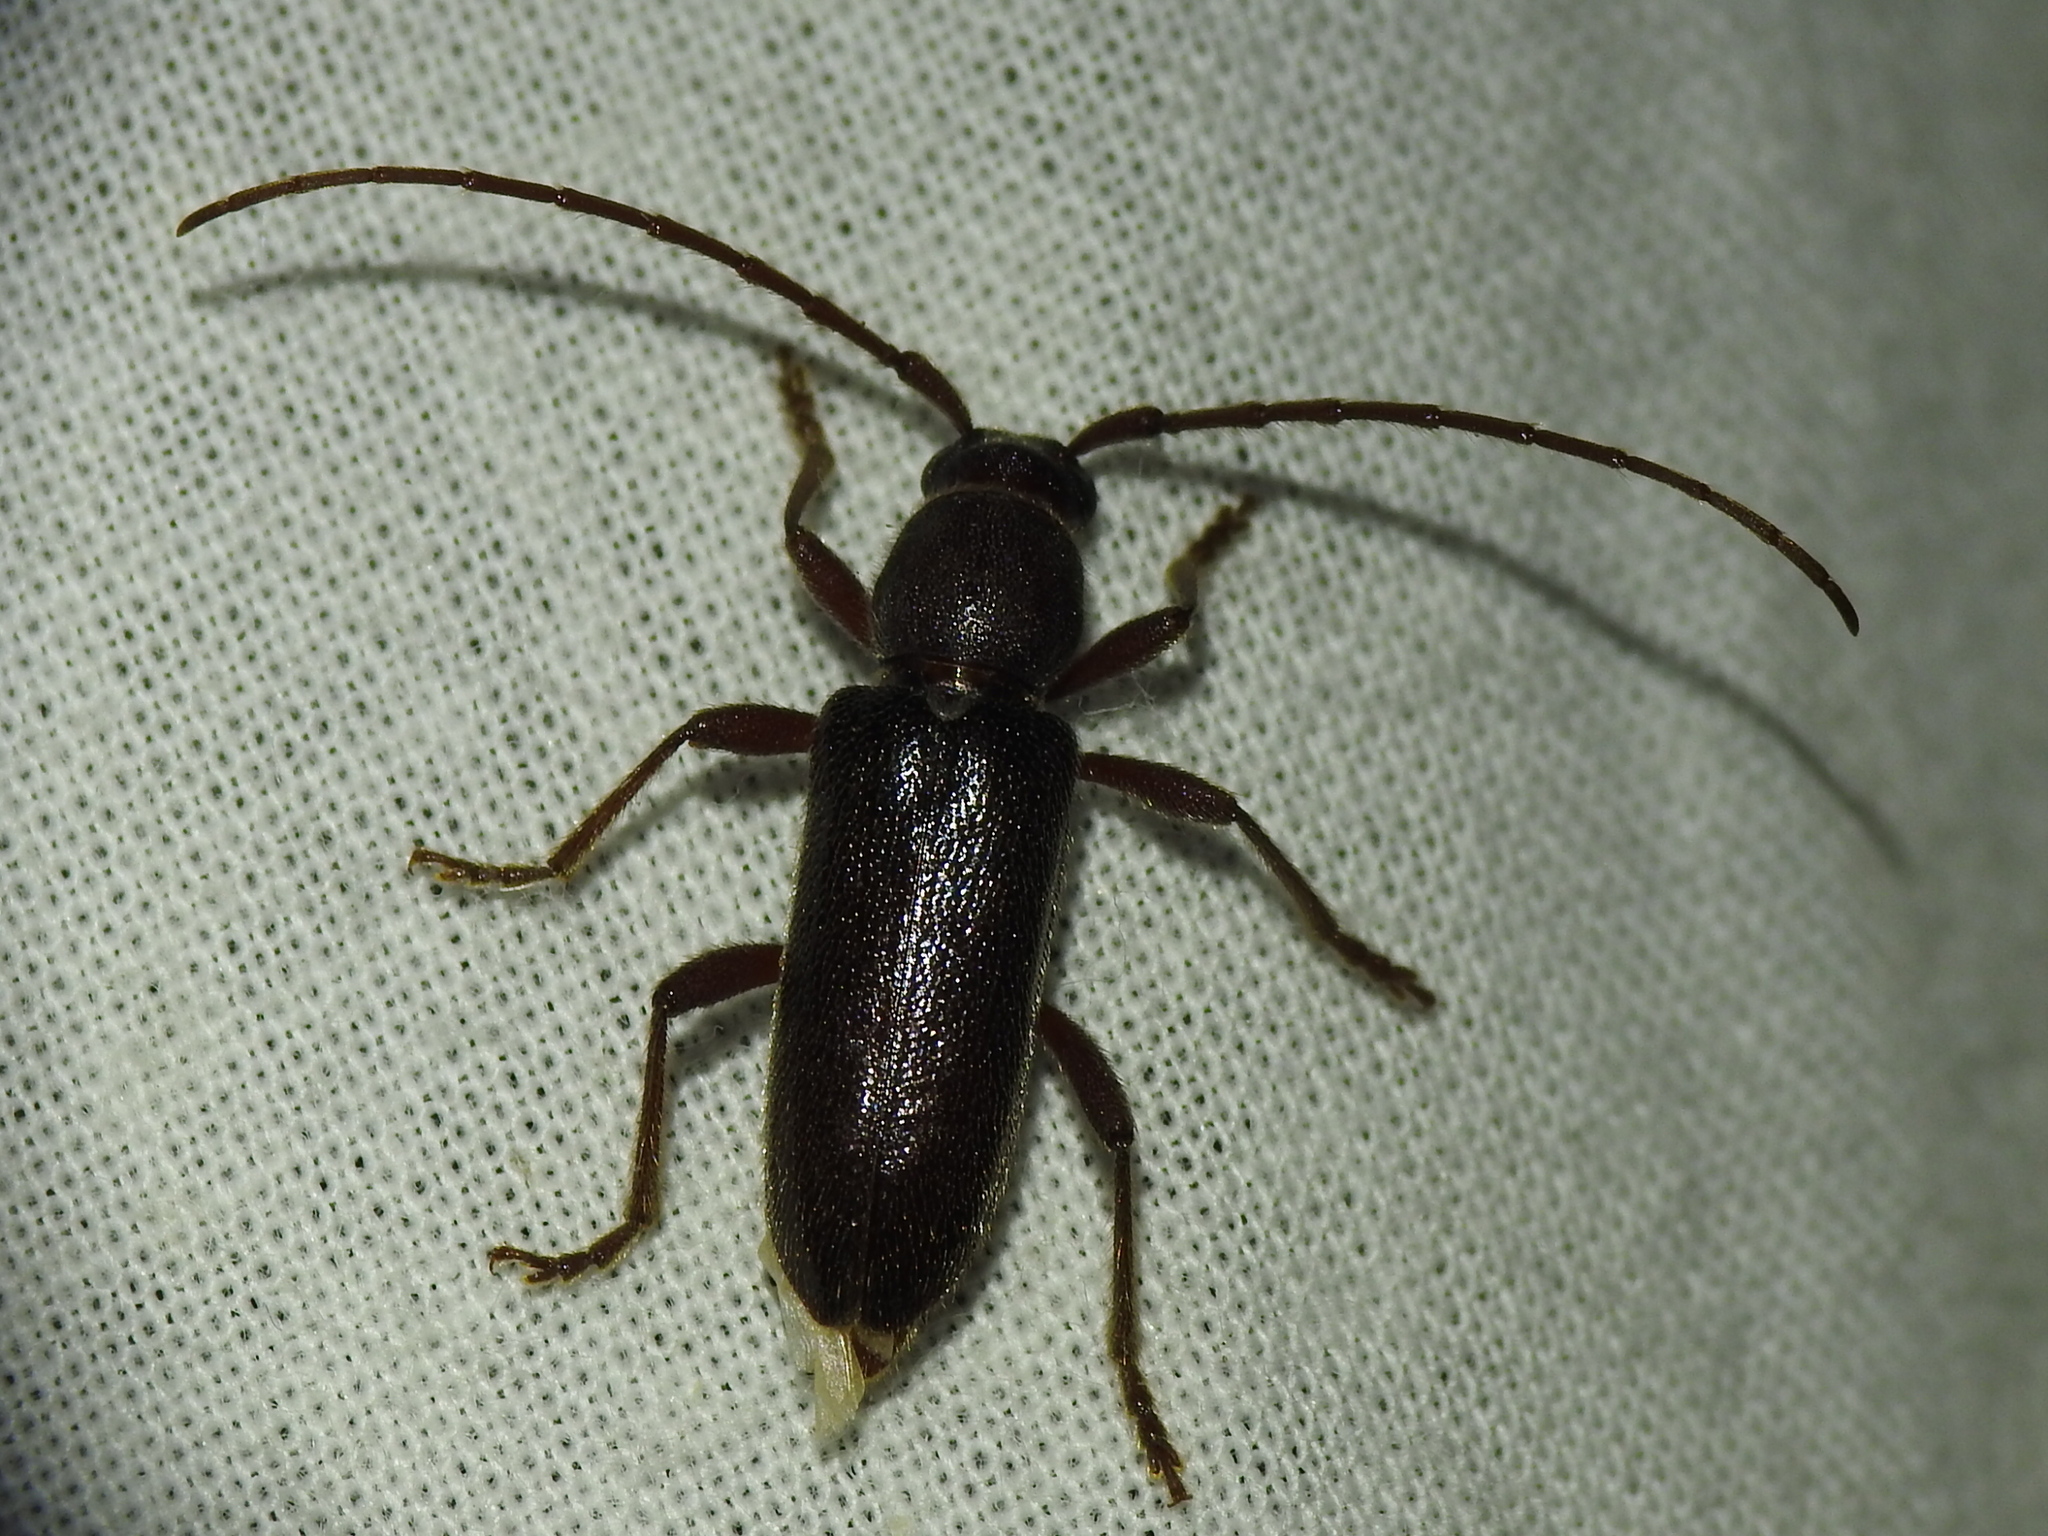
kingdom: Animalia
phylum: Arthropoda
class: Insecta
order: Coleoptera
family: Cerambycidae
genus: Anelaphus
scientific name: Anelaphus moestus
